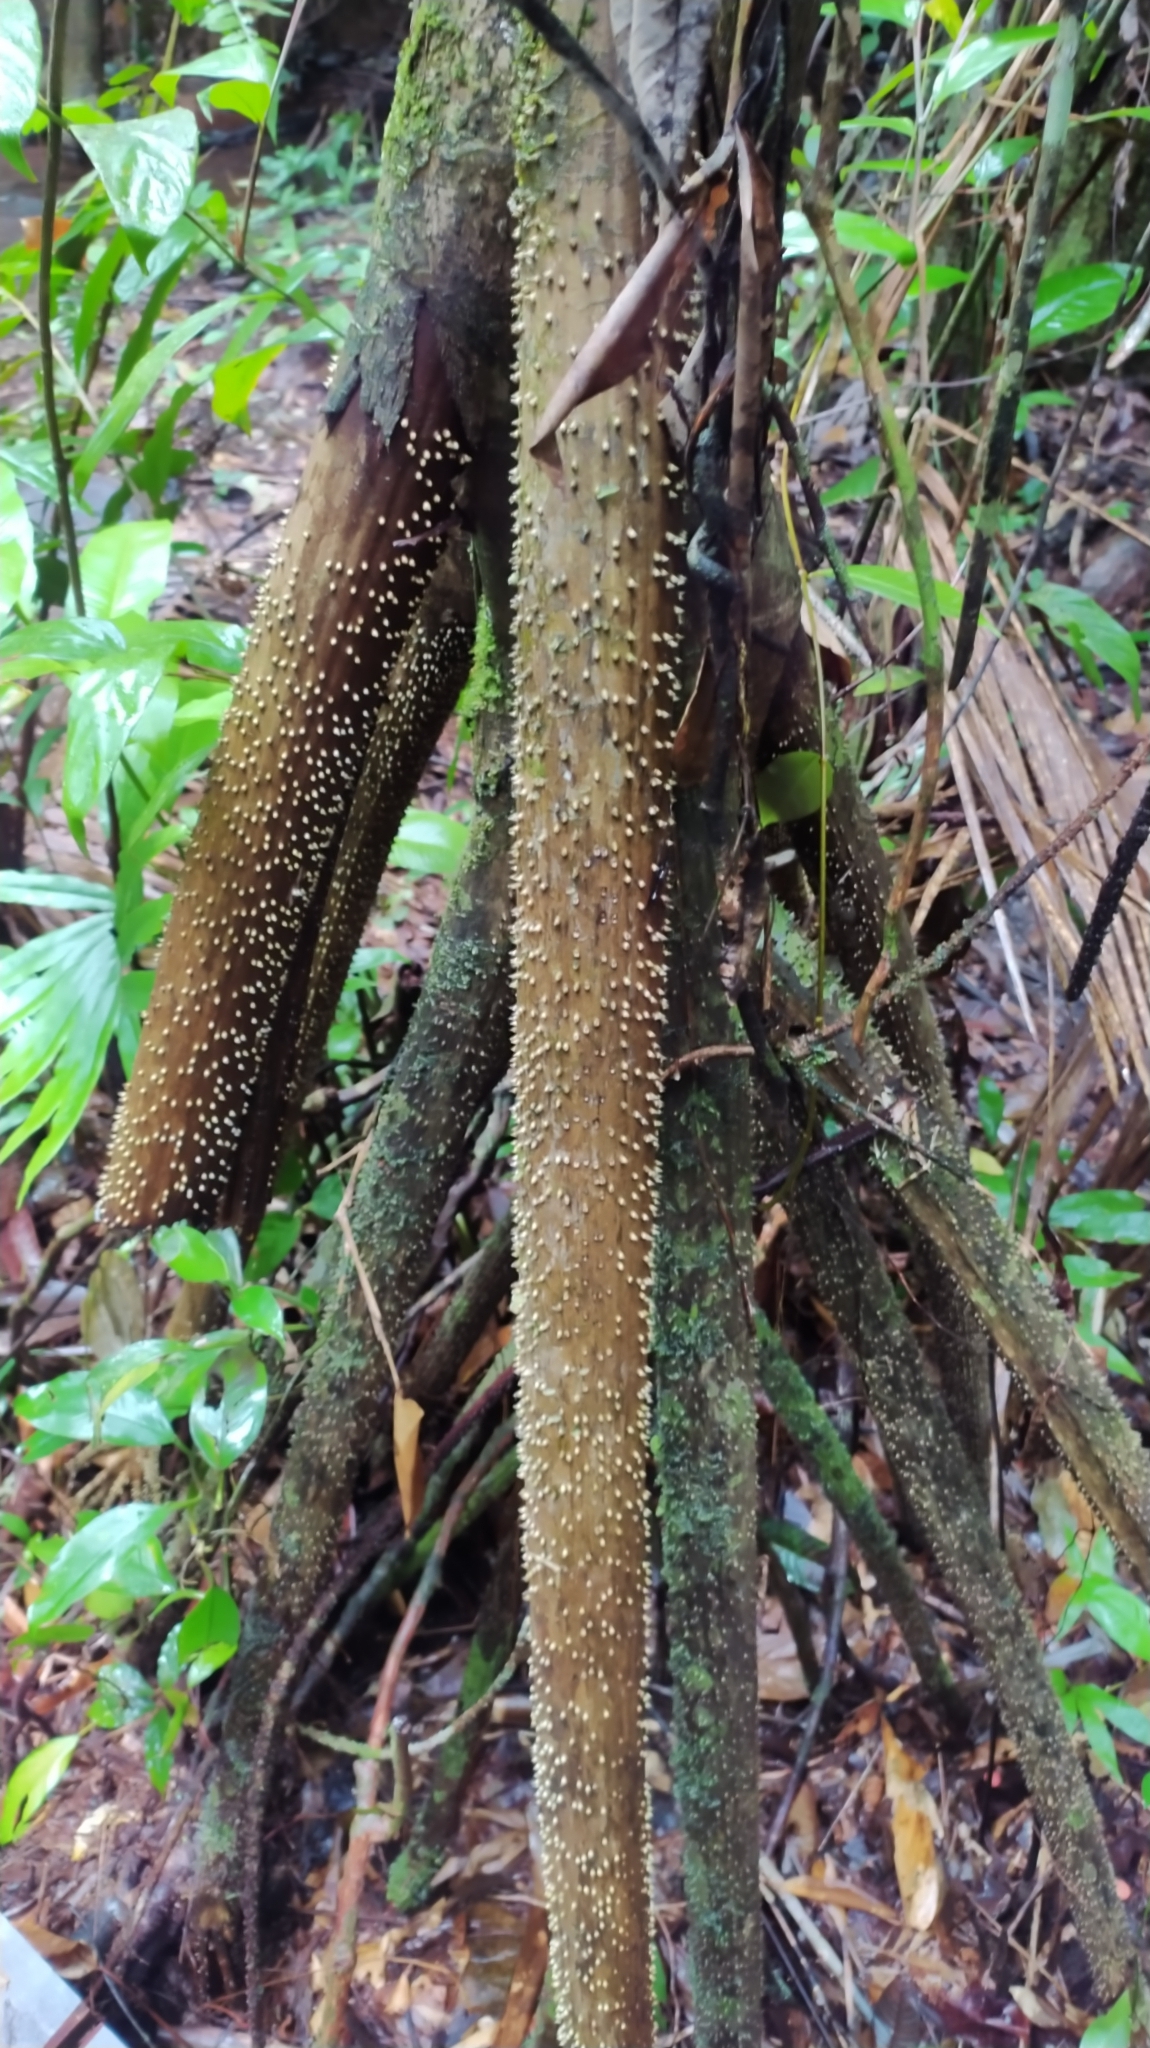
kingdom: Plantae
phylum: Tracheophyta
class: Liliopsida
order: Arecales
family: Arecaceae
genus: Socratea
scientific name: Socratea exorrhiza
